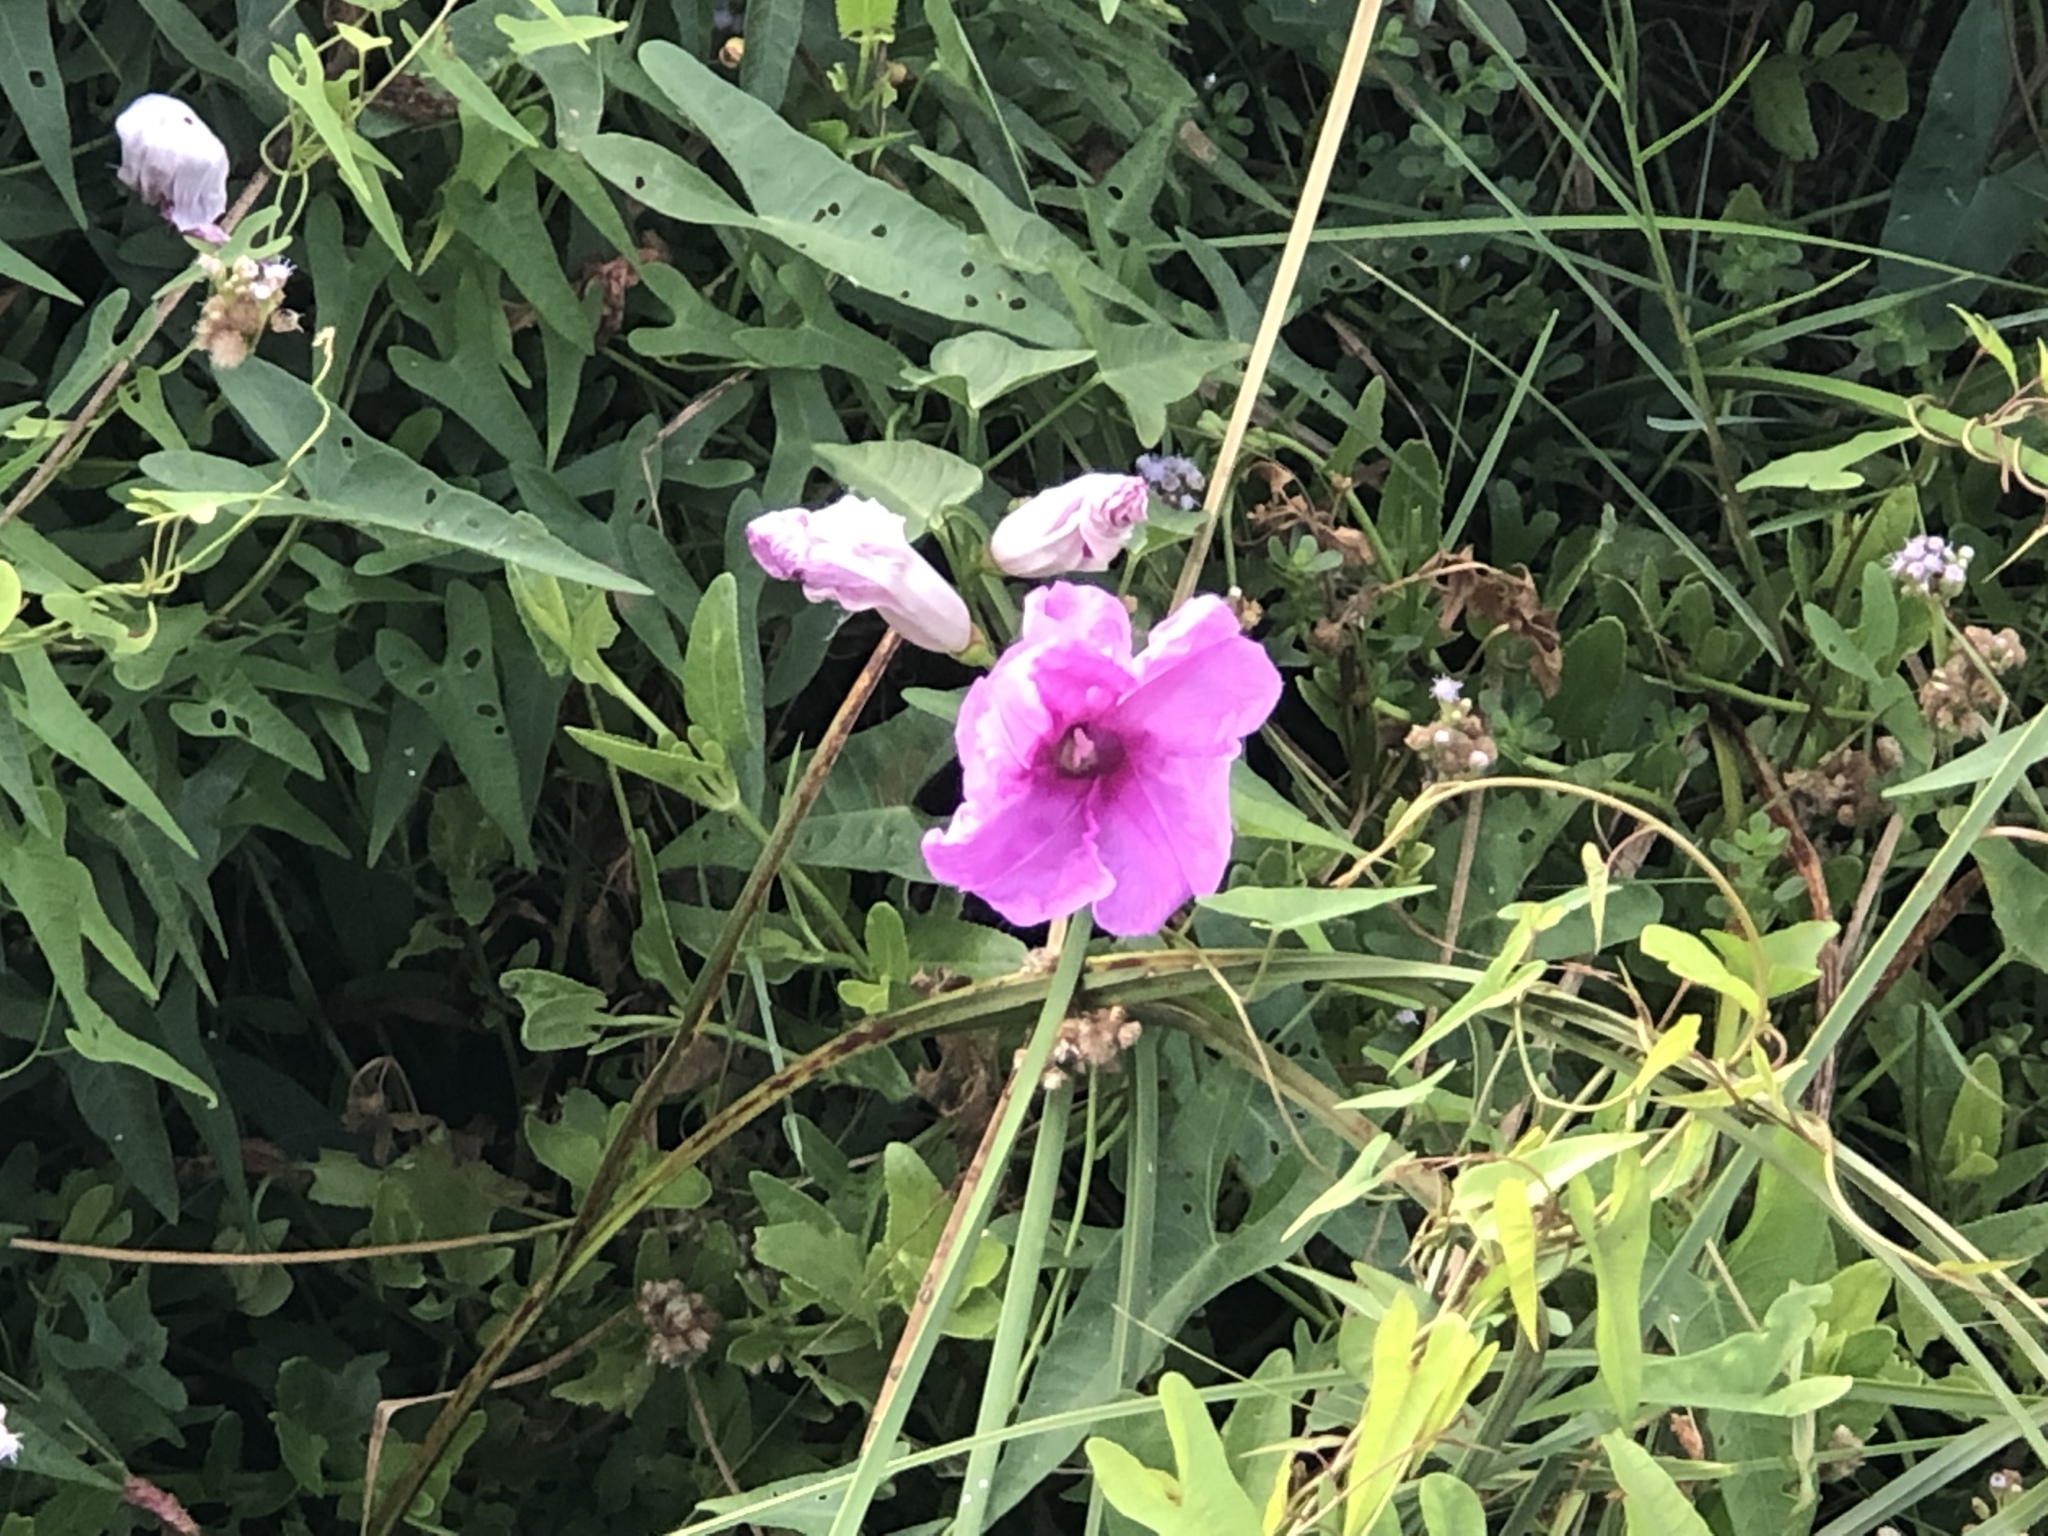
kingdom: Plantae
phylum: Tracheophyta
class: Magnoliopsida
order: Solanales
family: Convolvulaceae
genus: Ipomoea
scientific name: Ipomoea sagittata
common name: Saltmarsh morning glory
